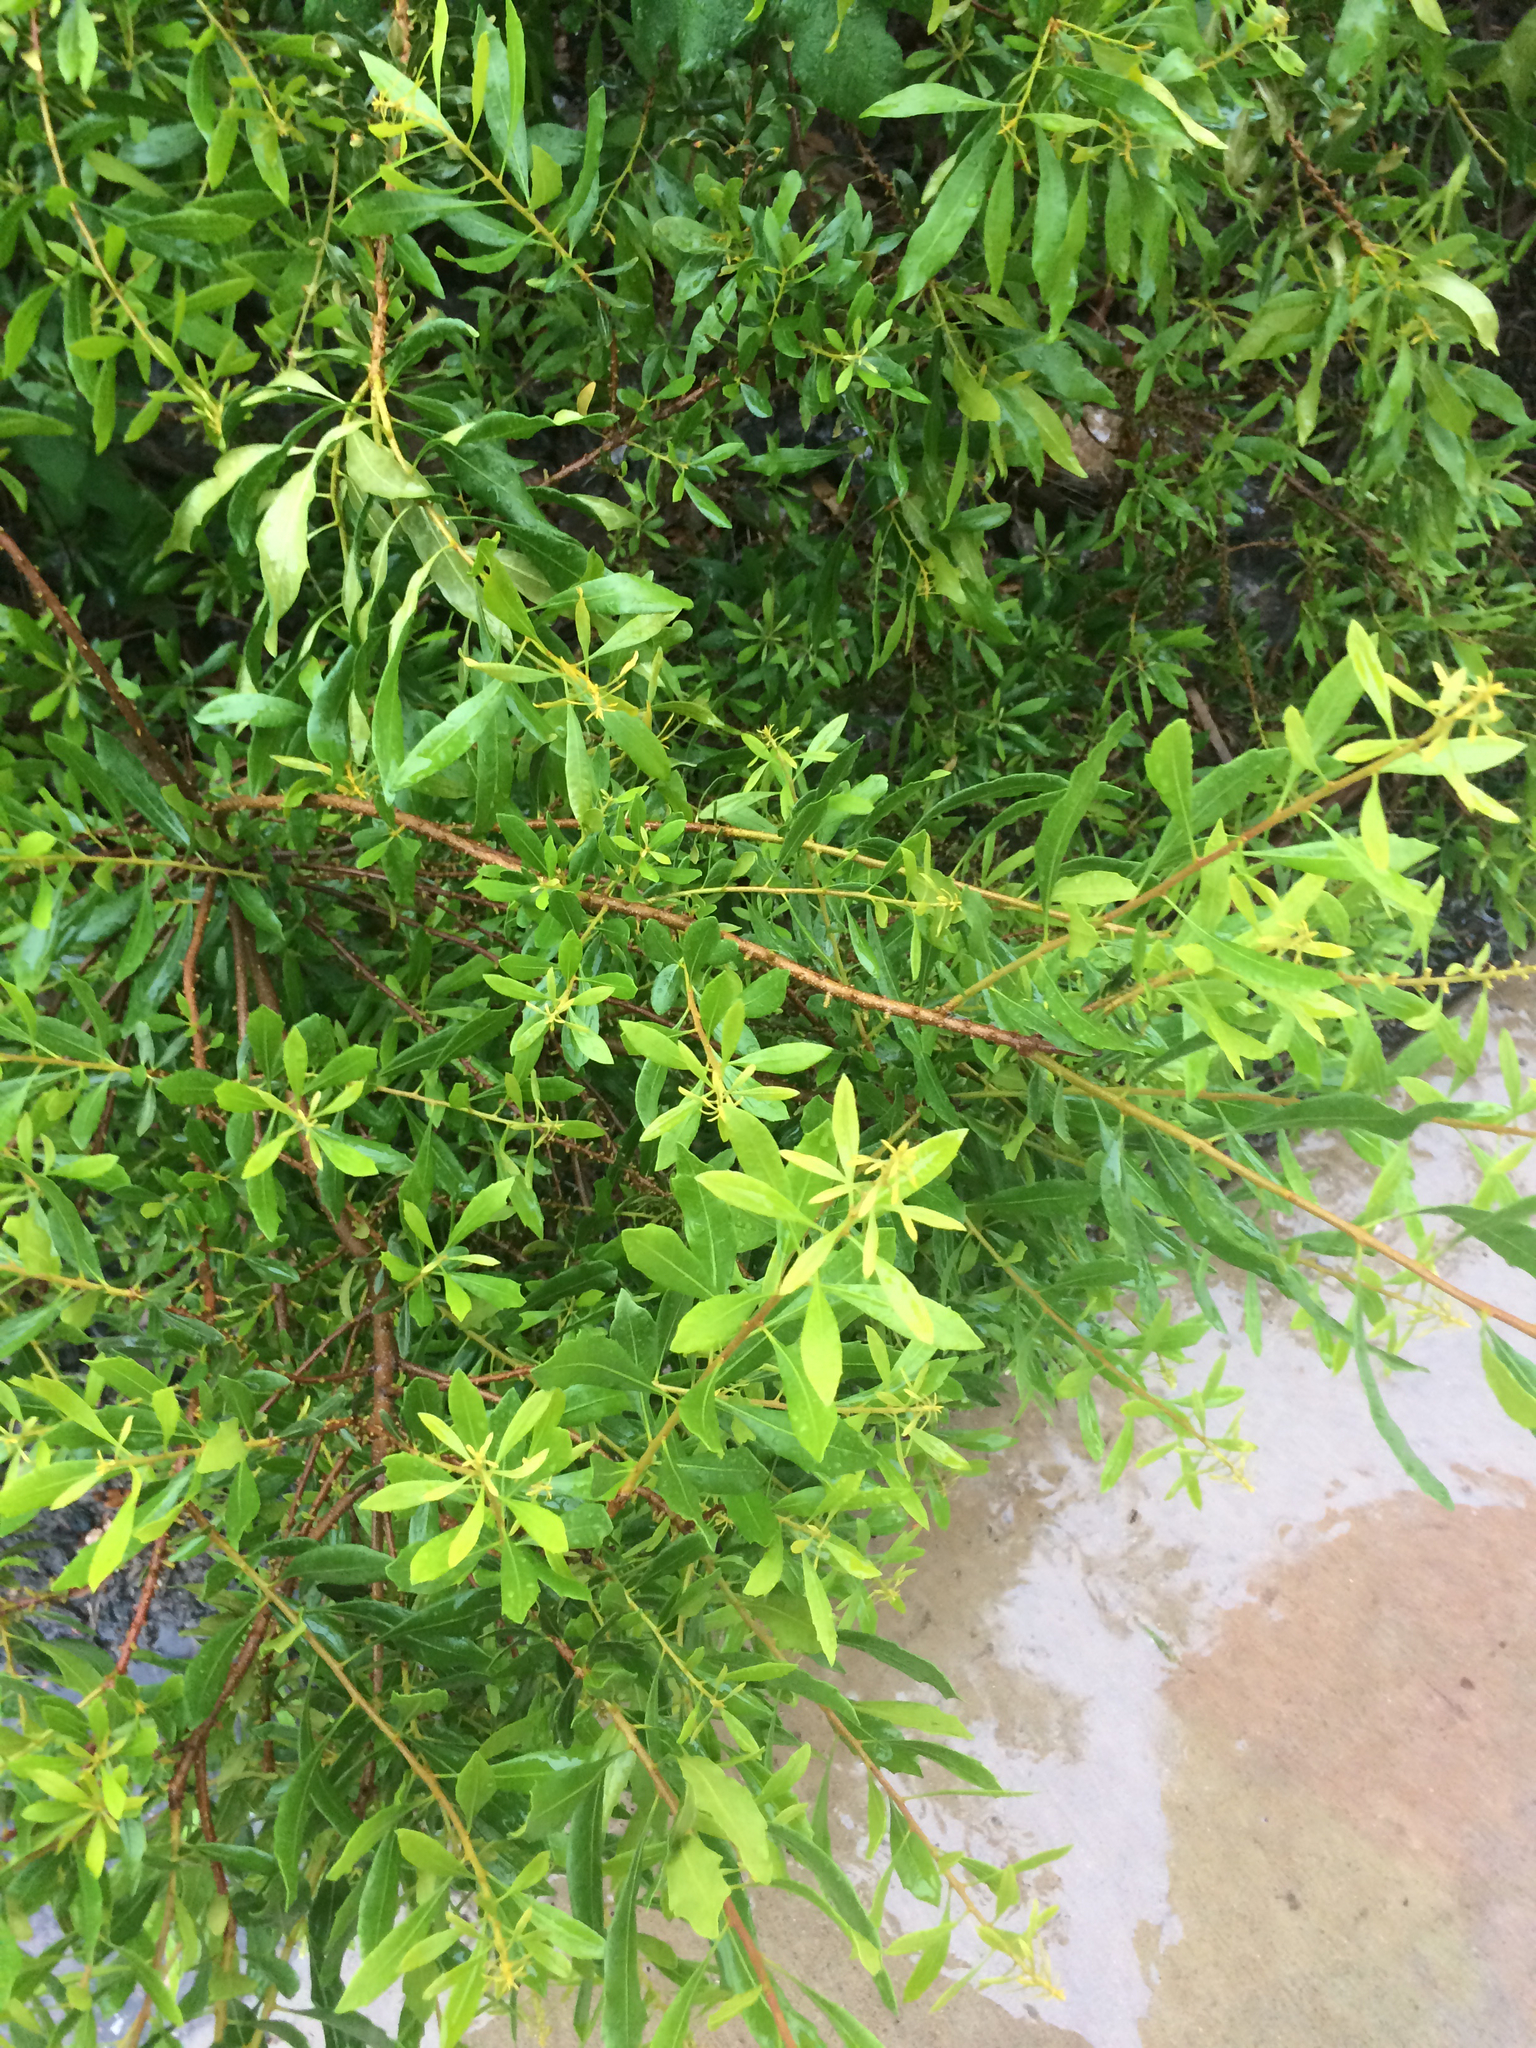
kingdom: Plantae
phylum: Tracheophyta
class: Magnoliopsida
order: Fagales
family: Myricaceae
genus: Morella
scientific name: Morella cerifera
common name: Wax myrtle
